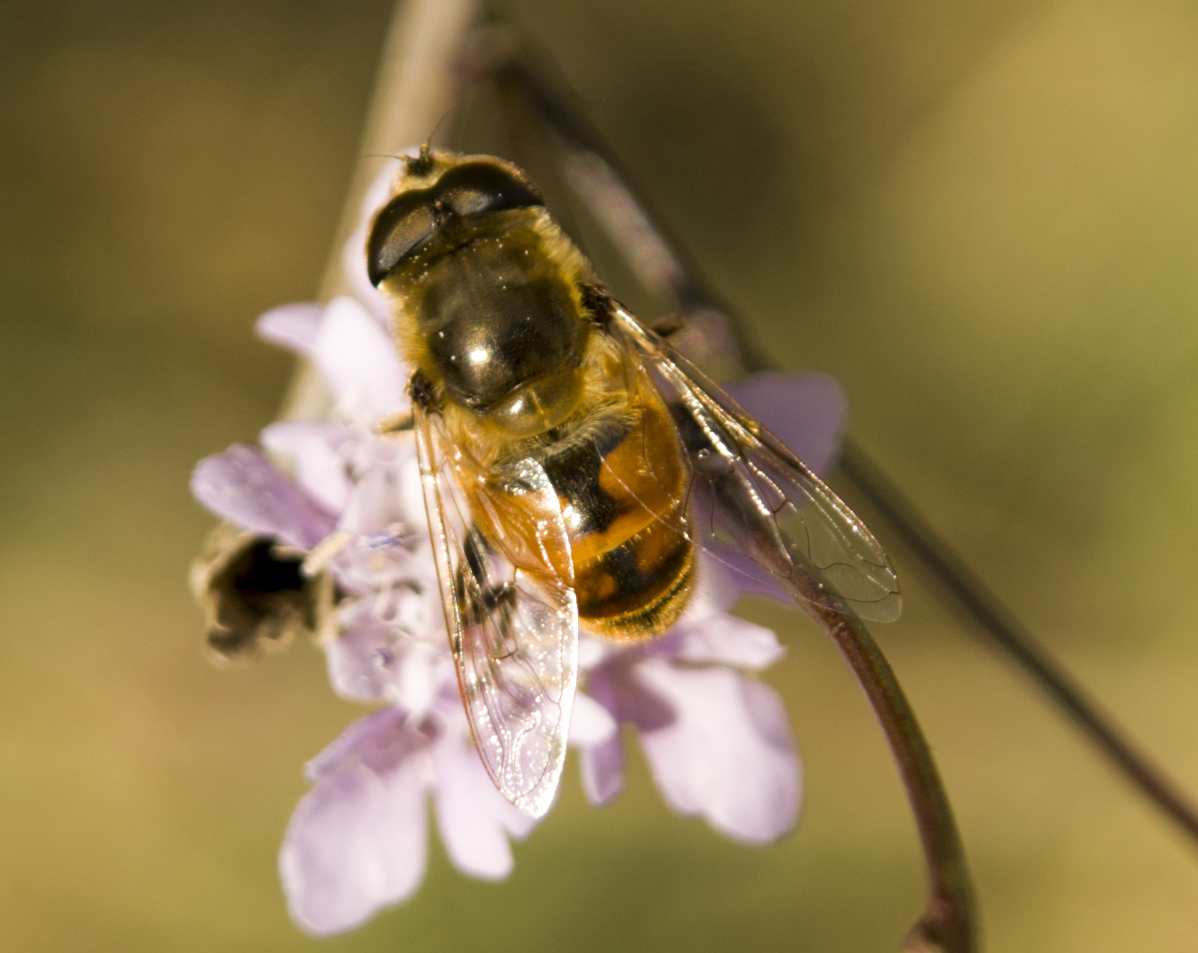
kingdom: Animalia
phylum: Arthropoda
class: Insecta
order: Diptera
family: Syrphidae
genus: Eristalis
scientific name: Eristalis tenax
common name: Drone fly
